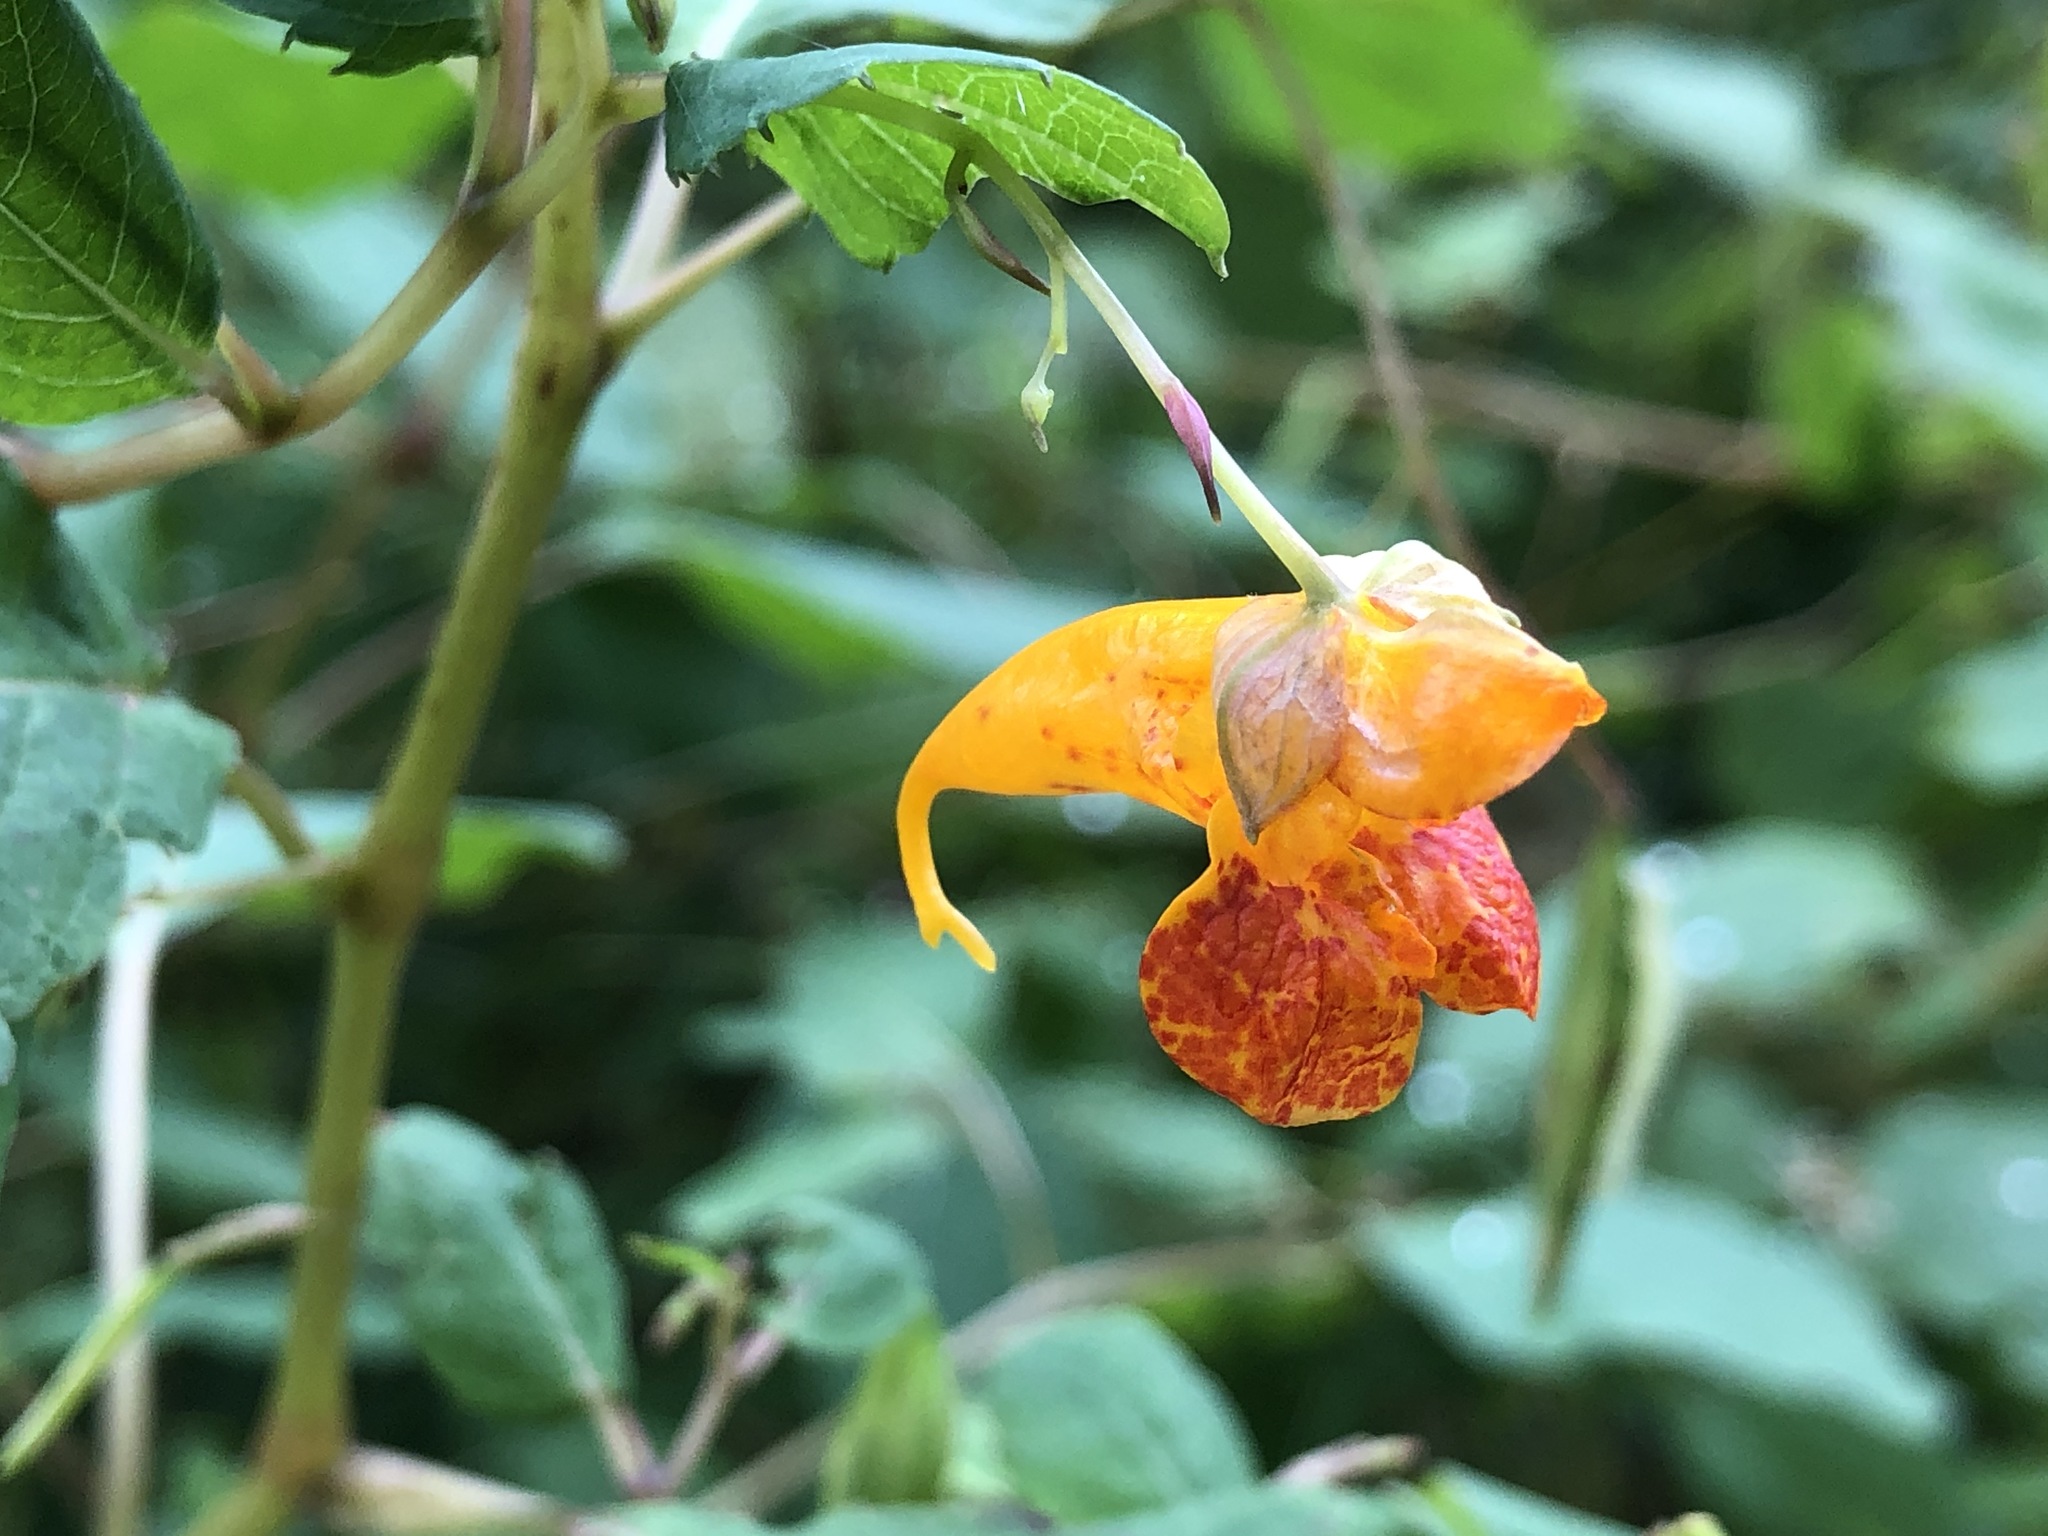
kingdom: Plantae
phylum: Tracheophyta
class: Magnoliopsida
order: Ericales
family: Balsaminaceae
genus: Impatiens
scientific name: Impatiens capensis
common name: Orange balsam
